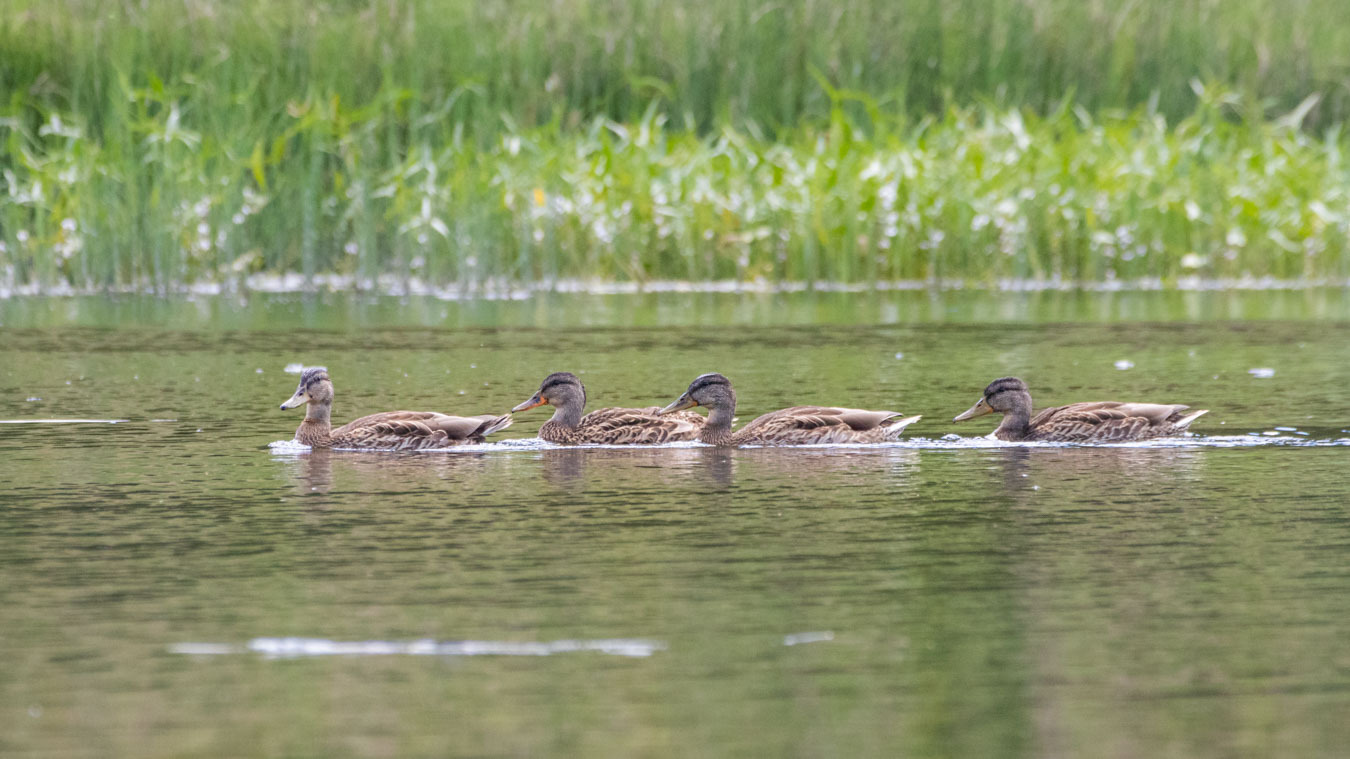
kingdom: Animalia
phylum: Chordata
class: Aves
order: Anseriformes
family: Anatidae
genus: Anas
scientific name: Anas platyrhynchos
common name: Mallard
